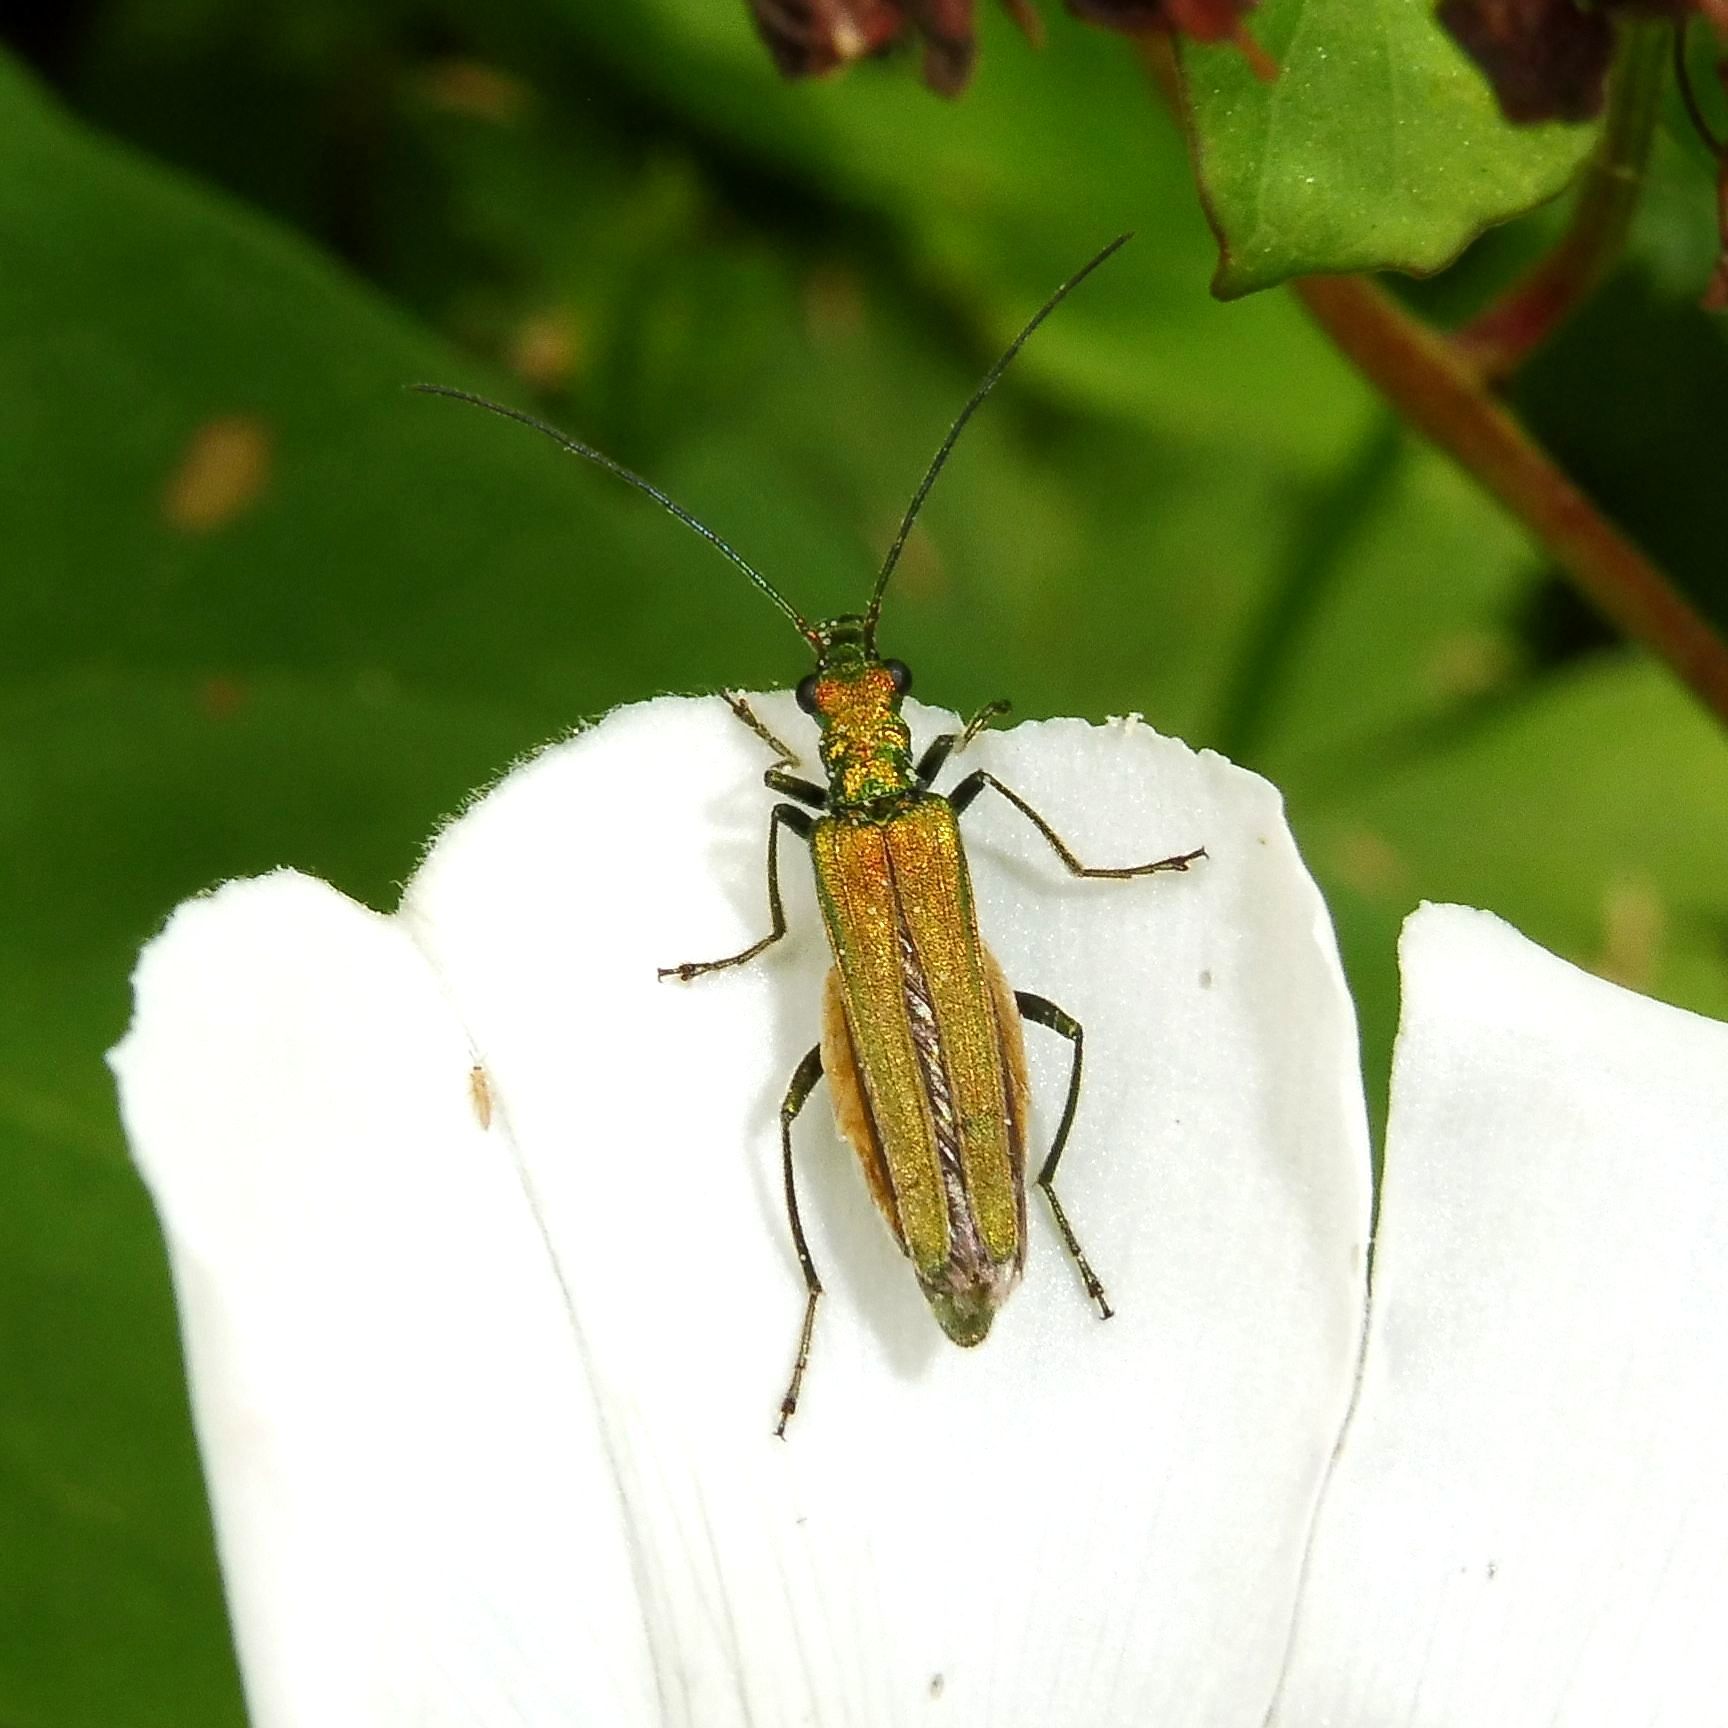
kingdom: Animalia
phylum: Arthropoda
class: Insecta
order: Coleoptera
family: Oedemeridae
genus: Oedemera
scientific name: Oedemera nobilis
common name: Swollen-thighed beetle
